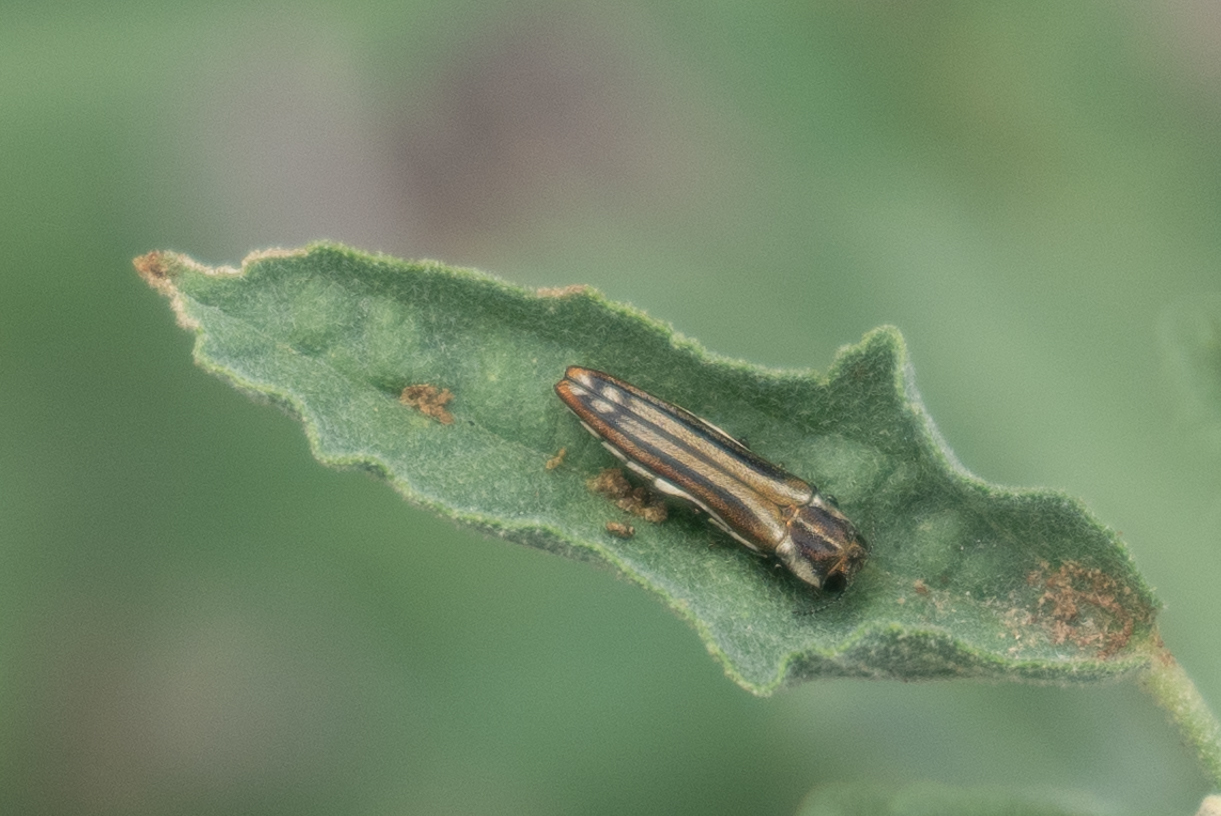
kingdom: Animalia
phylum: Arthropoda
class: Insecta
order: Coleoptera
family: Buprestidae
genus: Agrilus
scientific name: Agrilus aureus
